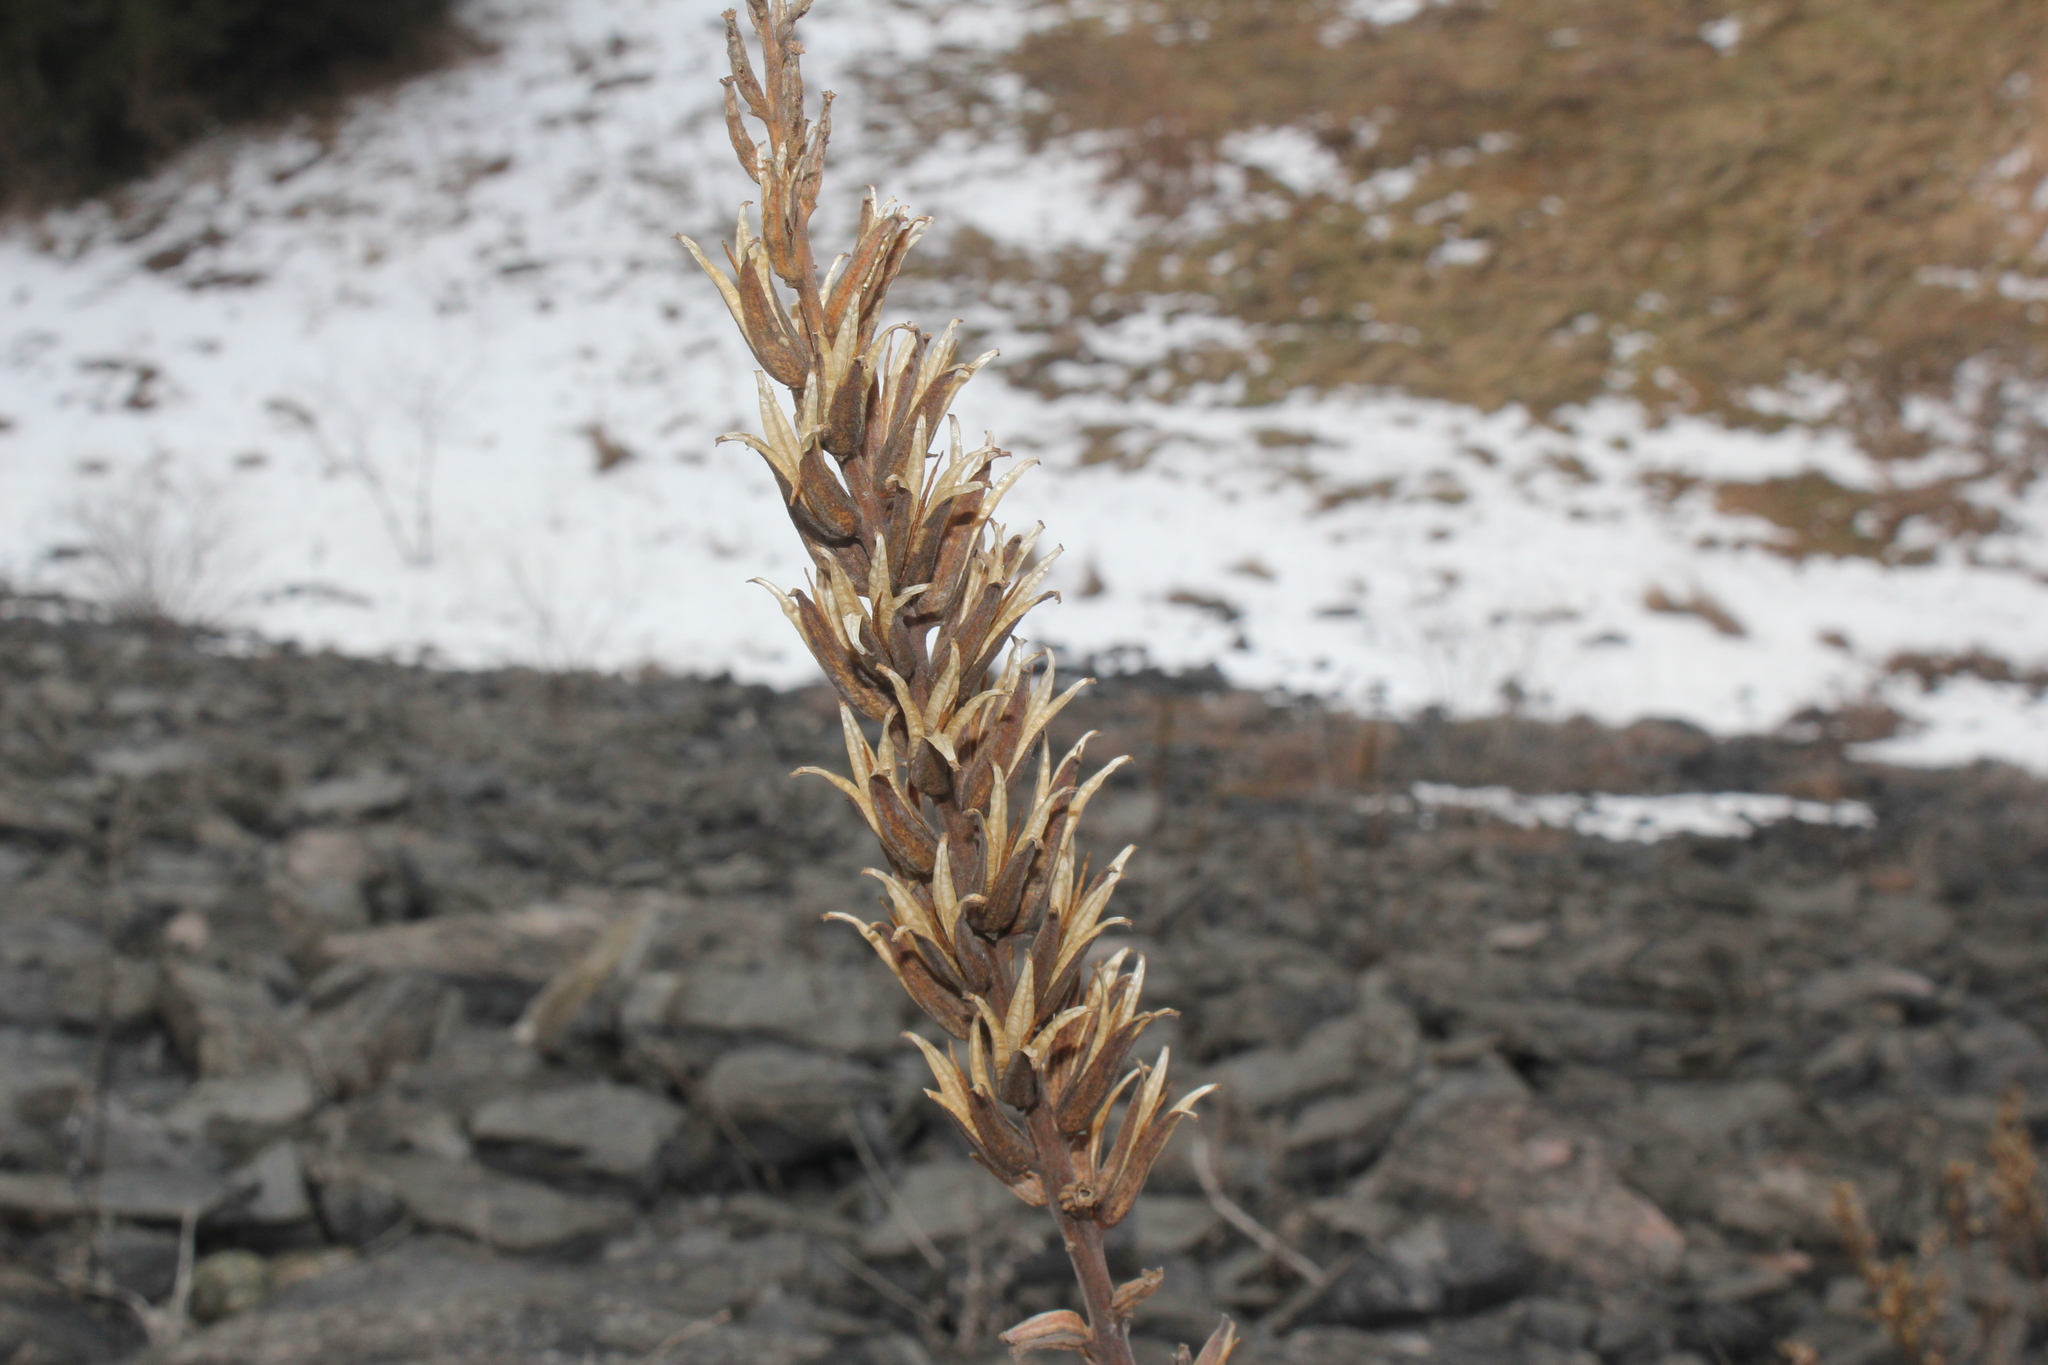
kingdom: Plantae
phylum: Tracheophyta
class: Magnoliopsida
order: Myrtales
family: Onagraceae
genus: Oenothera
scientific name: Oenothera biennis
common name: Common evening-primrose
